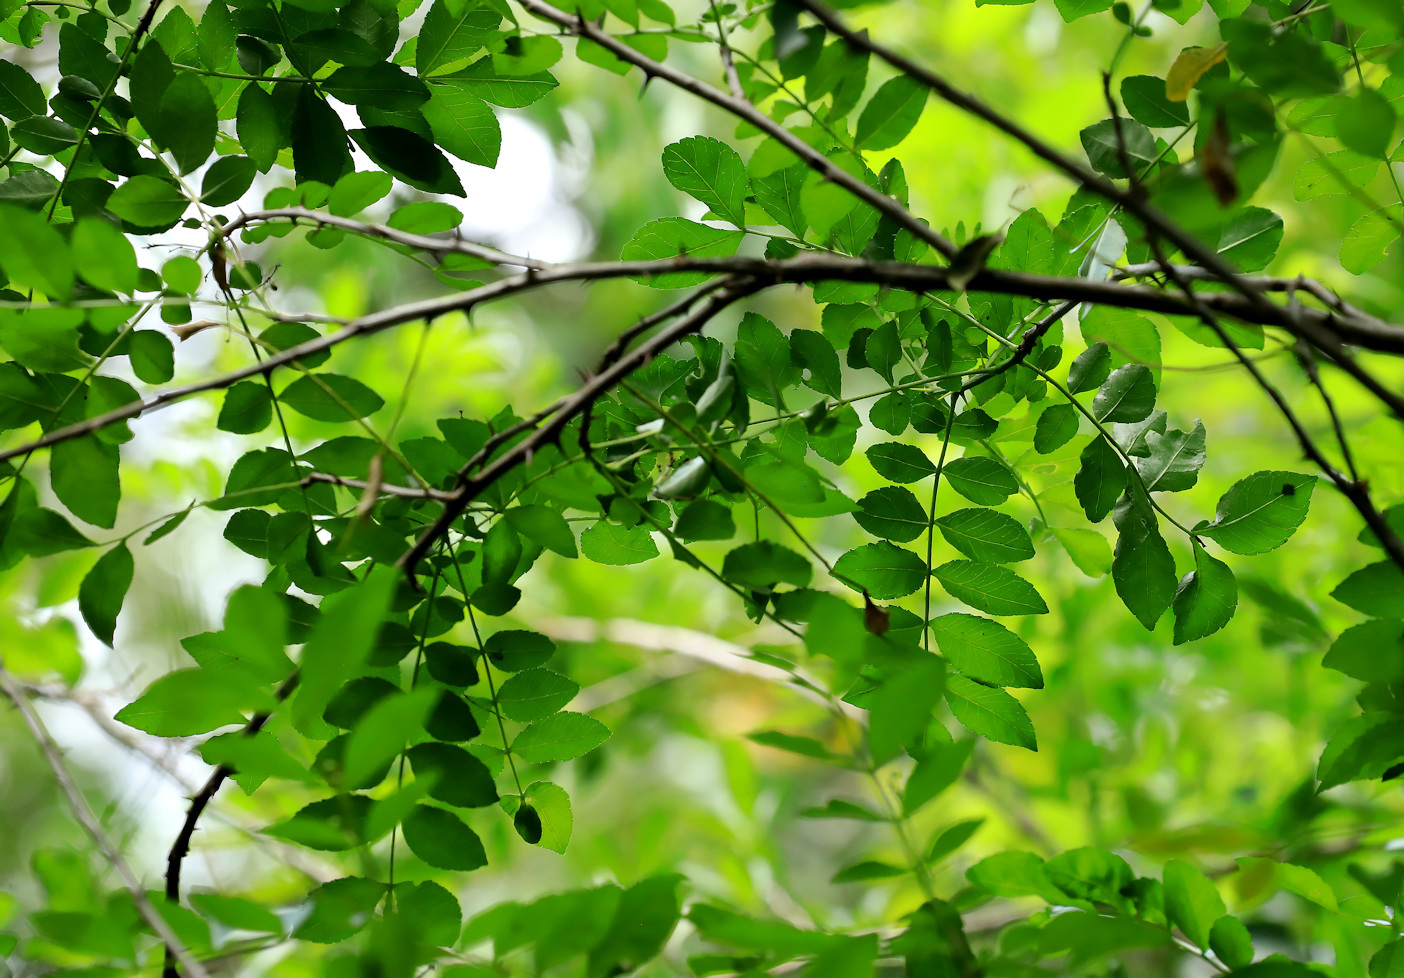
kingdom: Plantae
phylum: Tracheophyta
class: Magnoliopsida
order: Sapindales
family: Rutaceae
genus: Zanthoxylum
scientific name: Zanthoxylum capense
